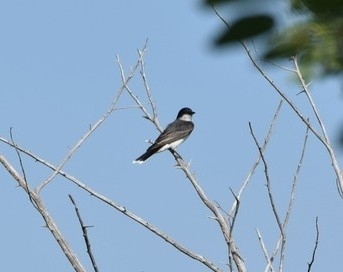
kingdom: Animalia
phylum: Chordata
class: Aves
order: Passeriformes
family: Tyrannidae
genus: Tyrannus
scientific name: Tyrannus tyrannus
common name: Eastern kingbird
